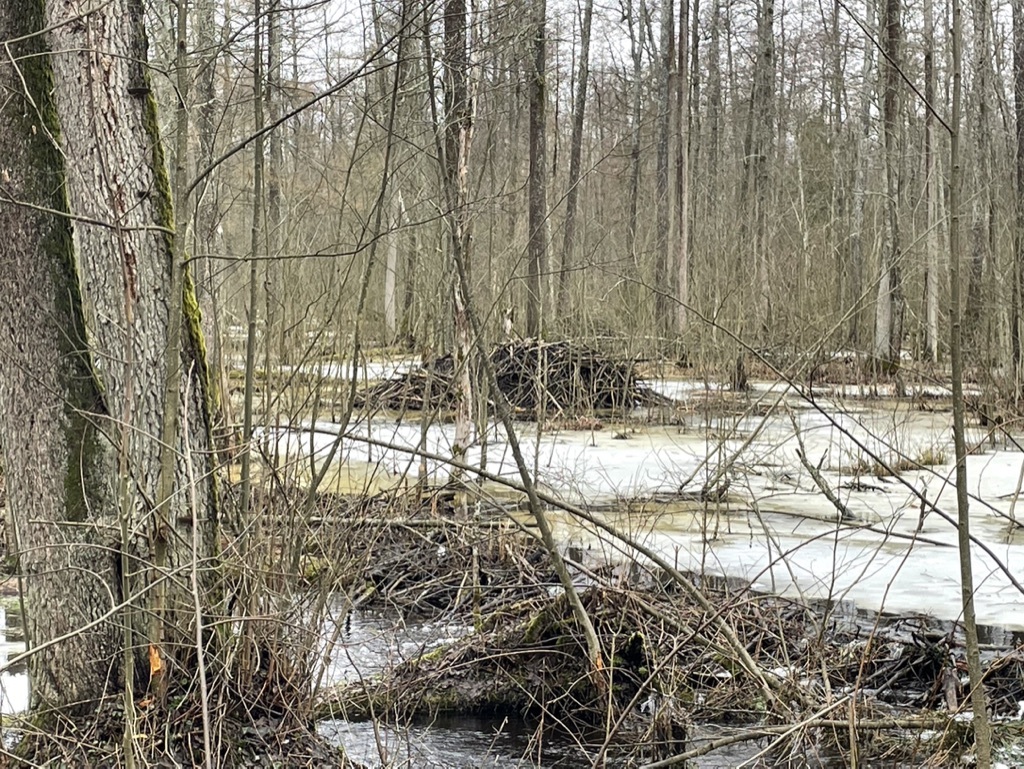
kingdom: Animalia
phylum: Chordata
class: Mammalia
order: Rodentia
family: Castoridae
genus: Castor
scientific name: Castor fiber
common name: Eurasian beaver
